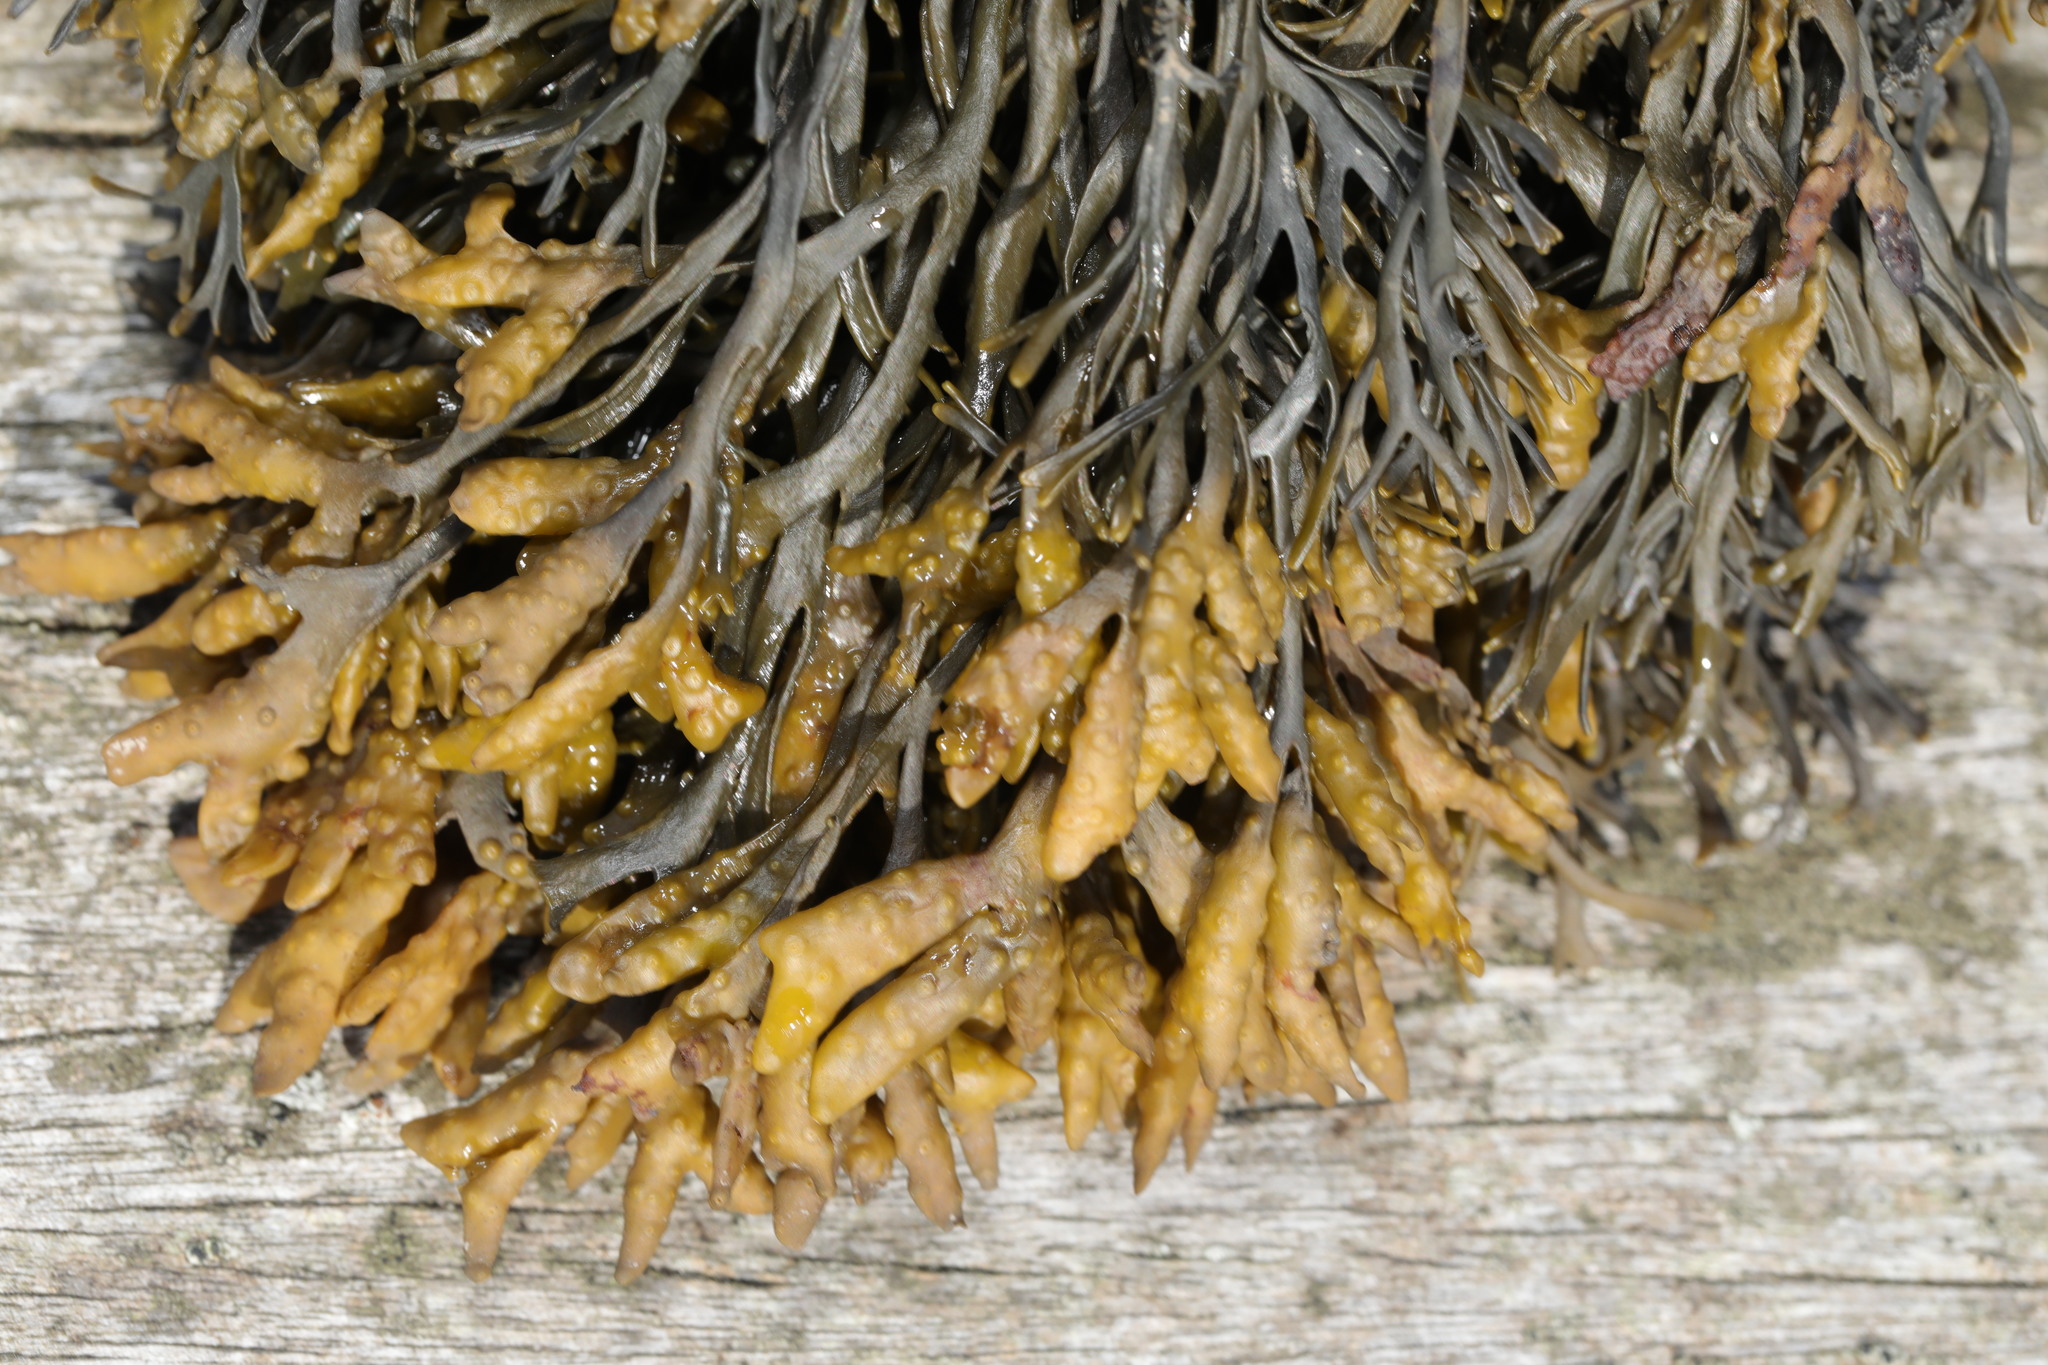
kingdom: Chromista
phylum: Ochrophyta
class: Phaeophyceae
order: Fucales
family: Fucaceae
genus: Pelvetia
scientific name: Pelvetia canaliculata
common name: Channelled wrack
